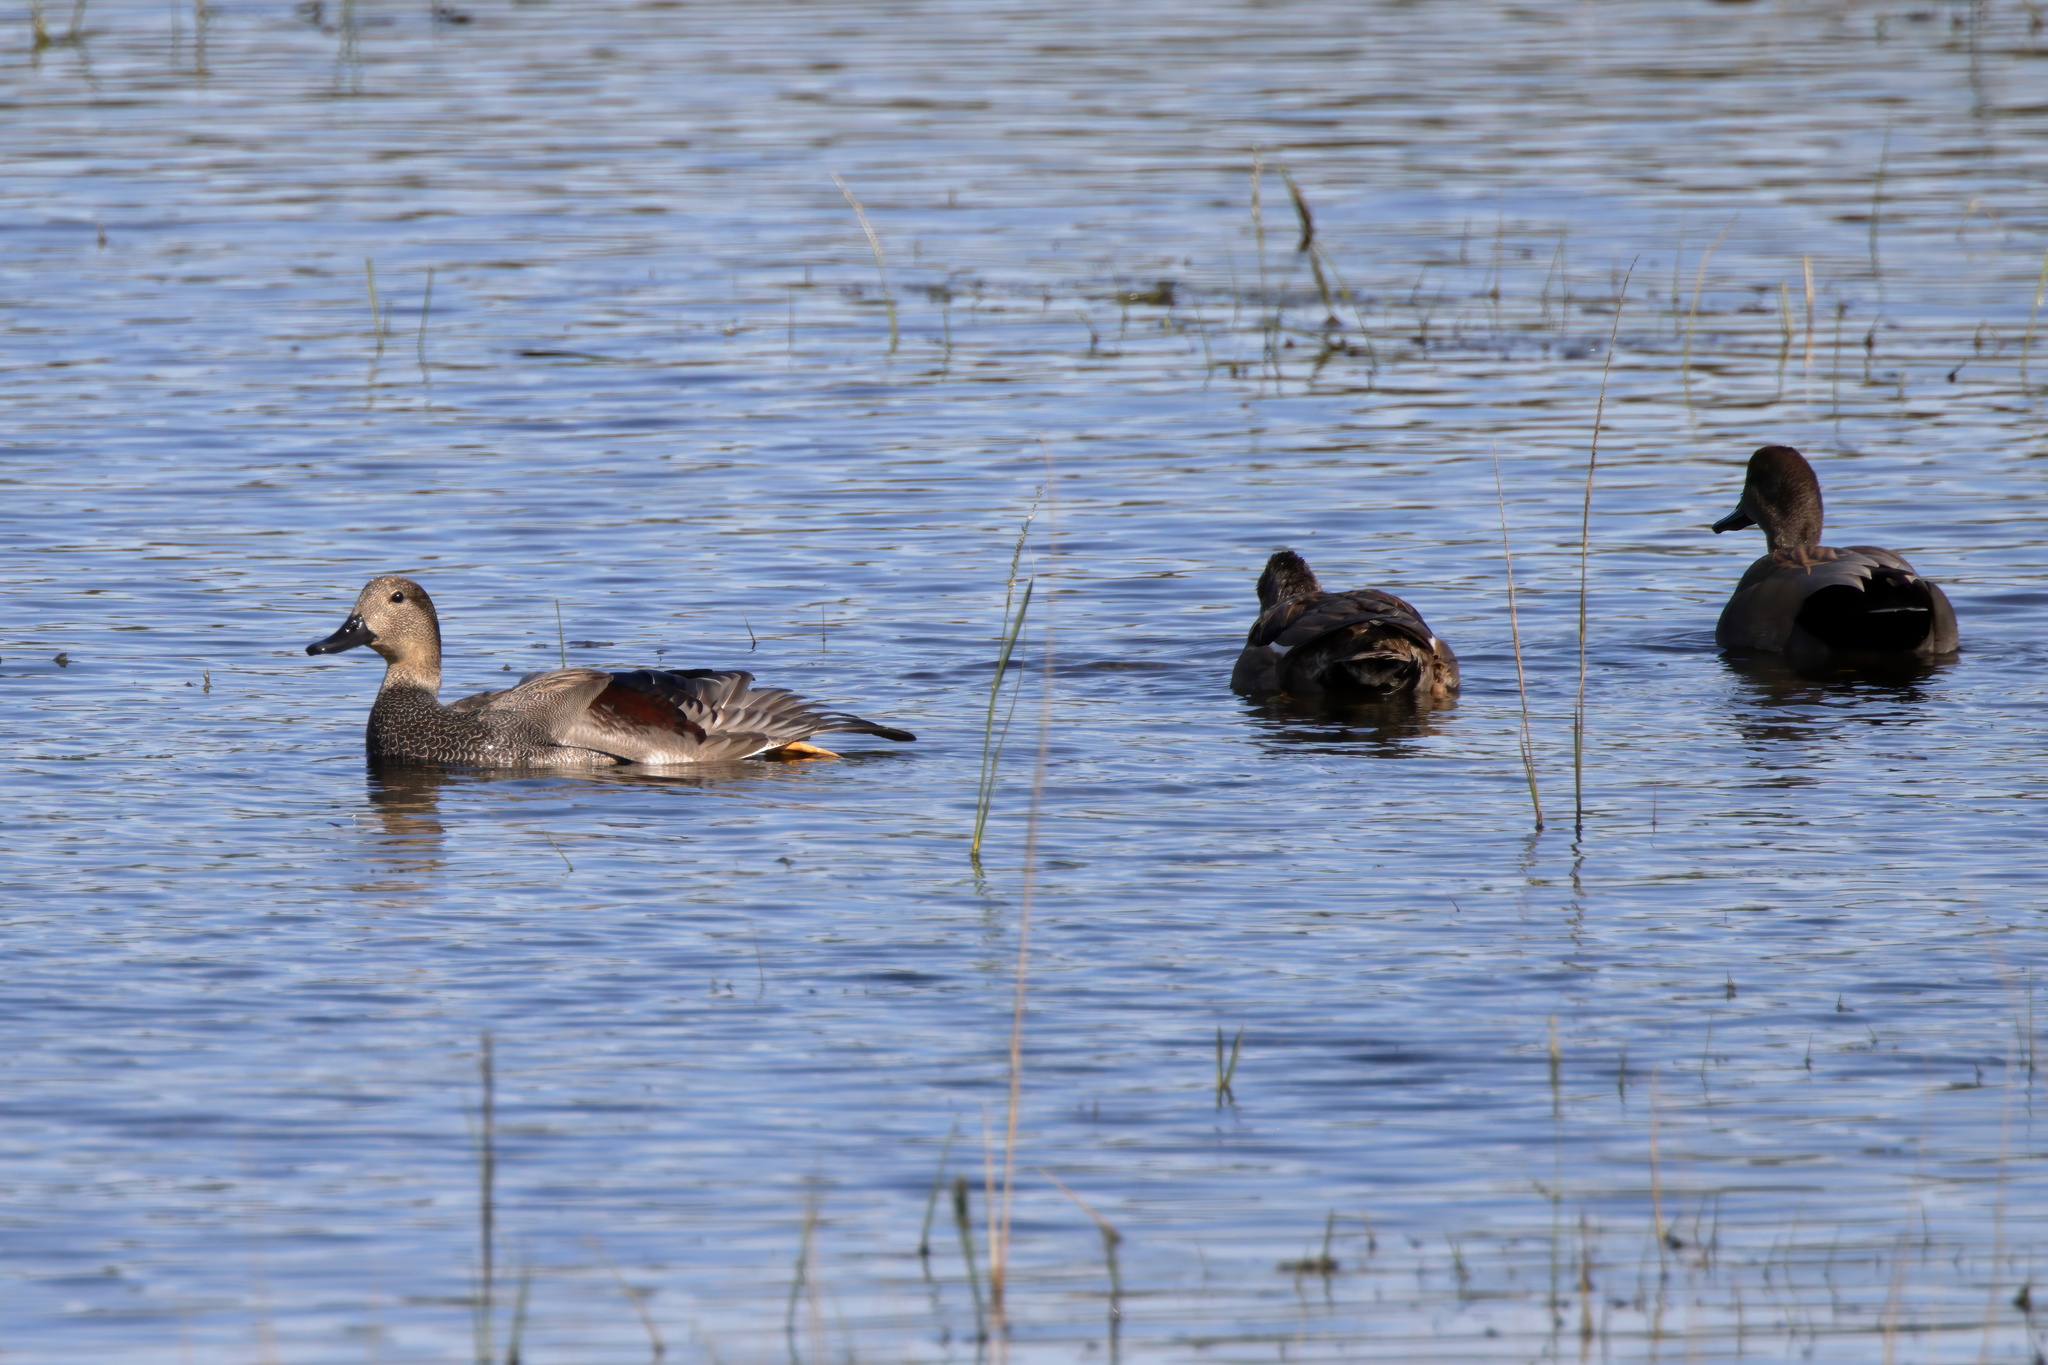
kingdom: Animalia
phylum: Chordata
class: Aves
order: Anseriformes
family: Anatidae
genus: Mareca
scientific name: Mareca strepera
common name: Gadwall
